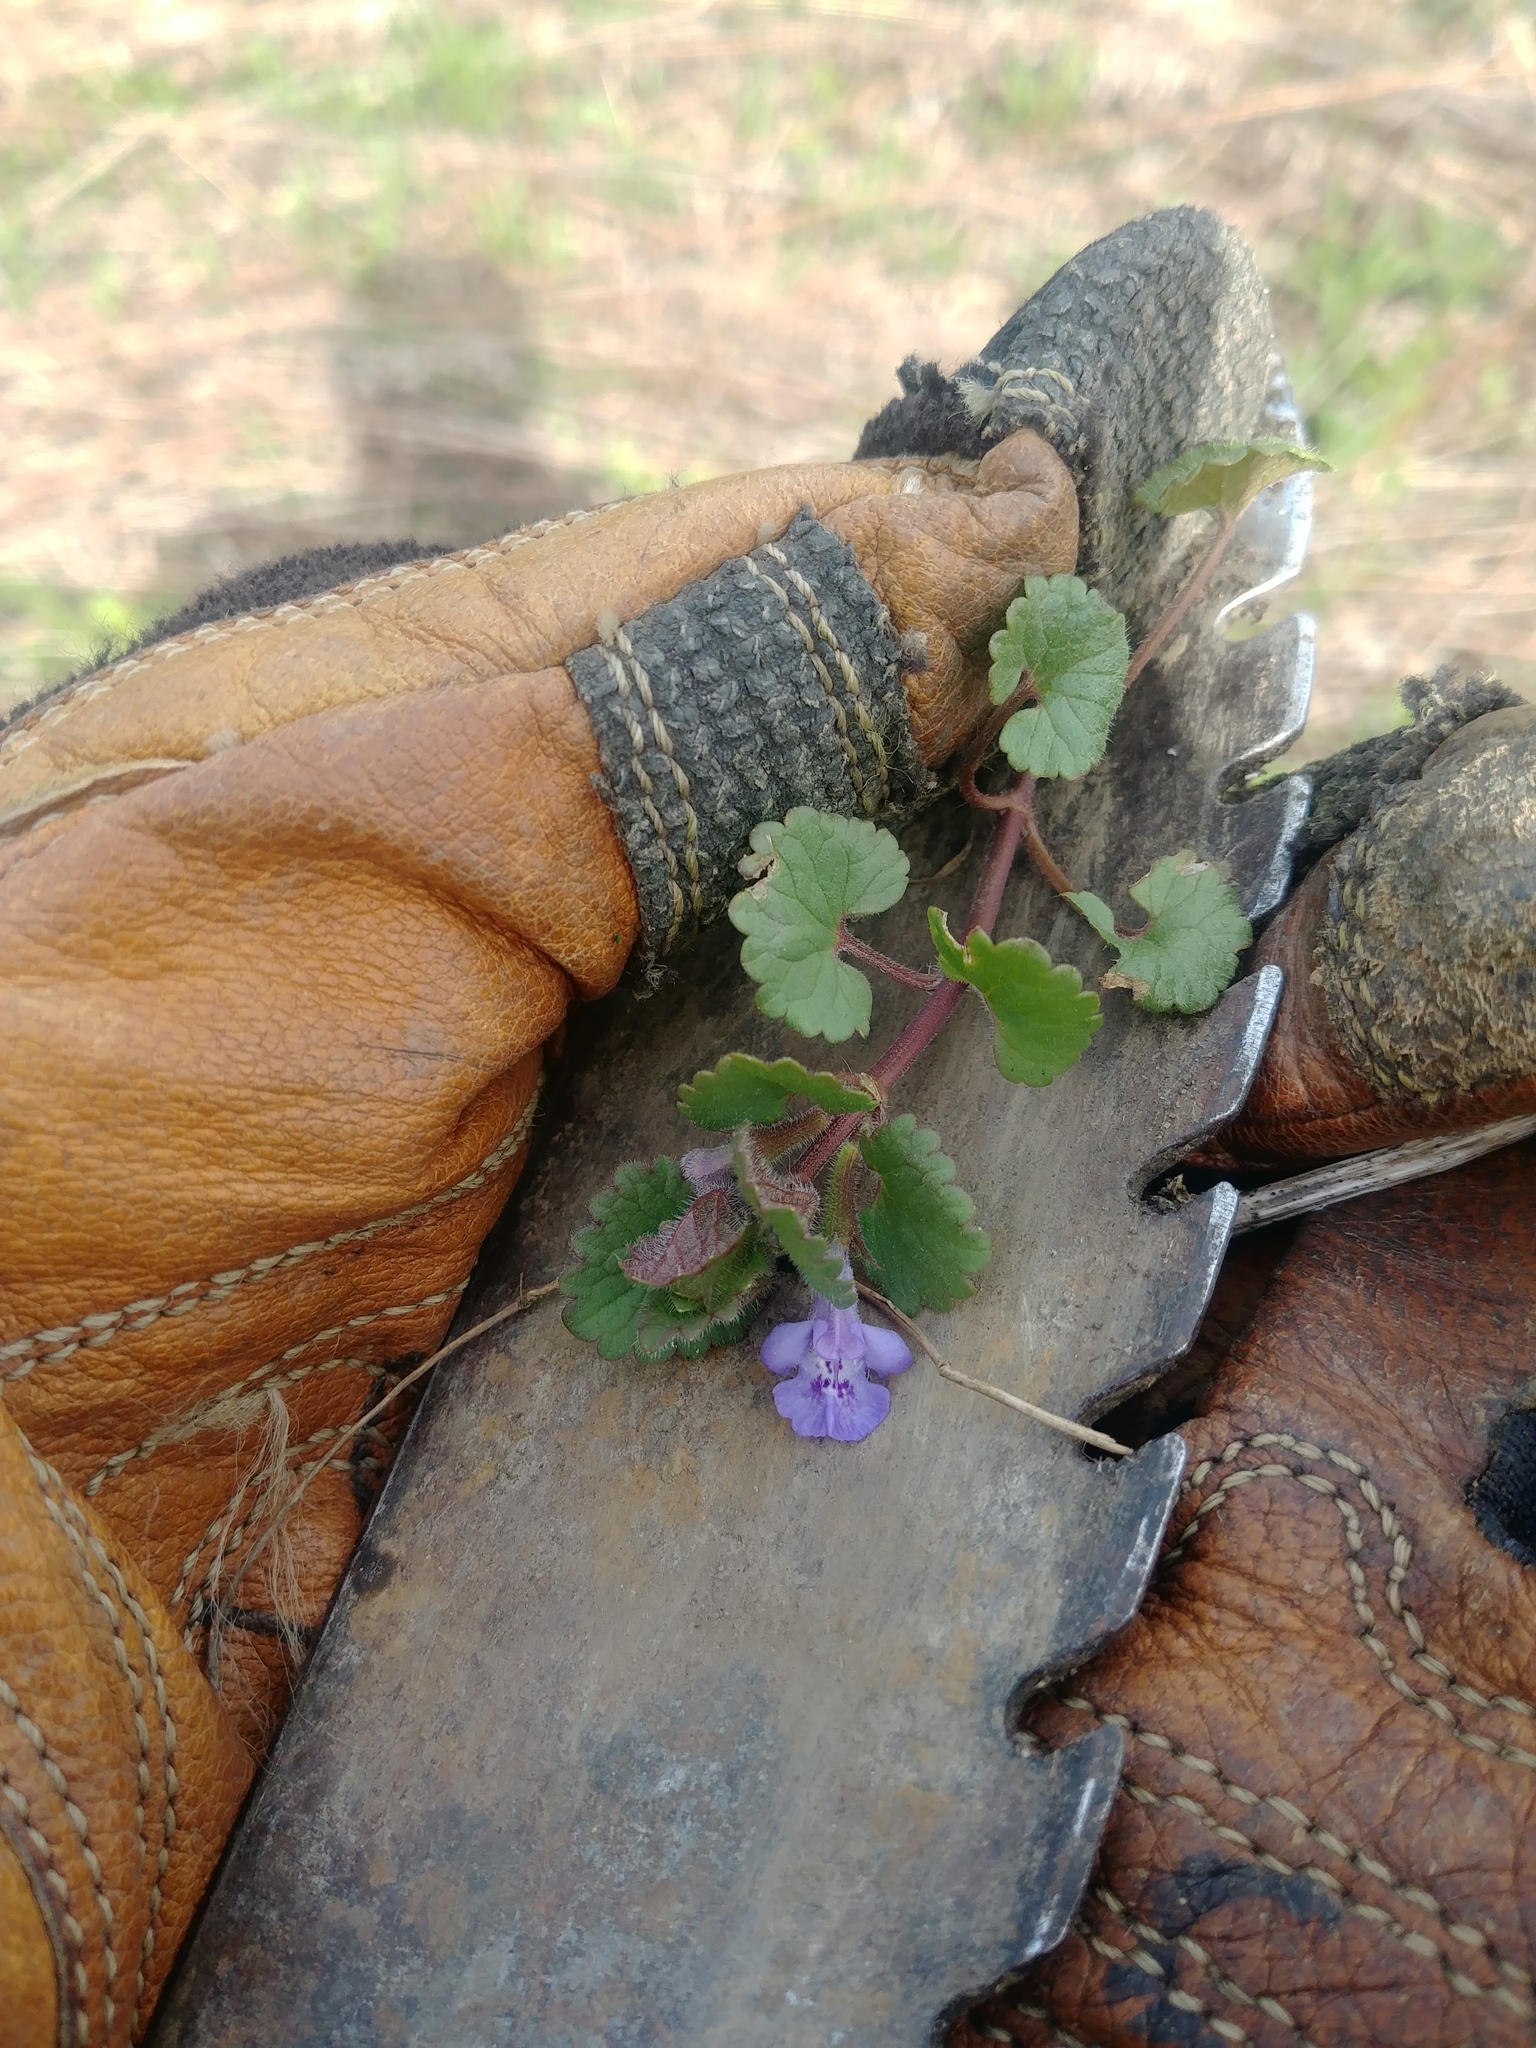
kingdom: Plantae
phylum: Tracheophyta
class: Magnoliopsida
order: Lamiales
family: Lamiaceae
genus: Glechoma
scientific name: Glechoma hederacea
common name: Ground ivy
